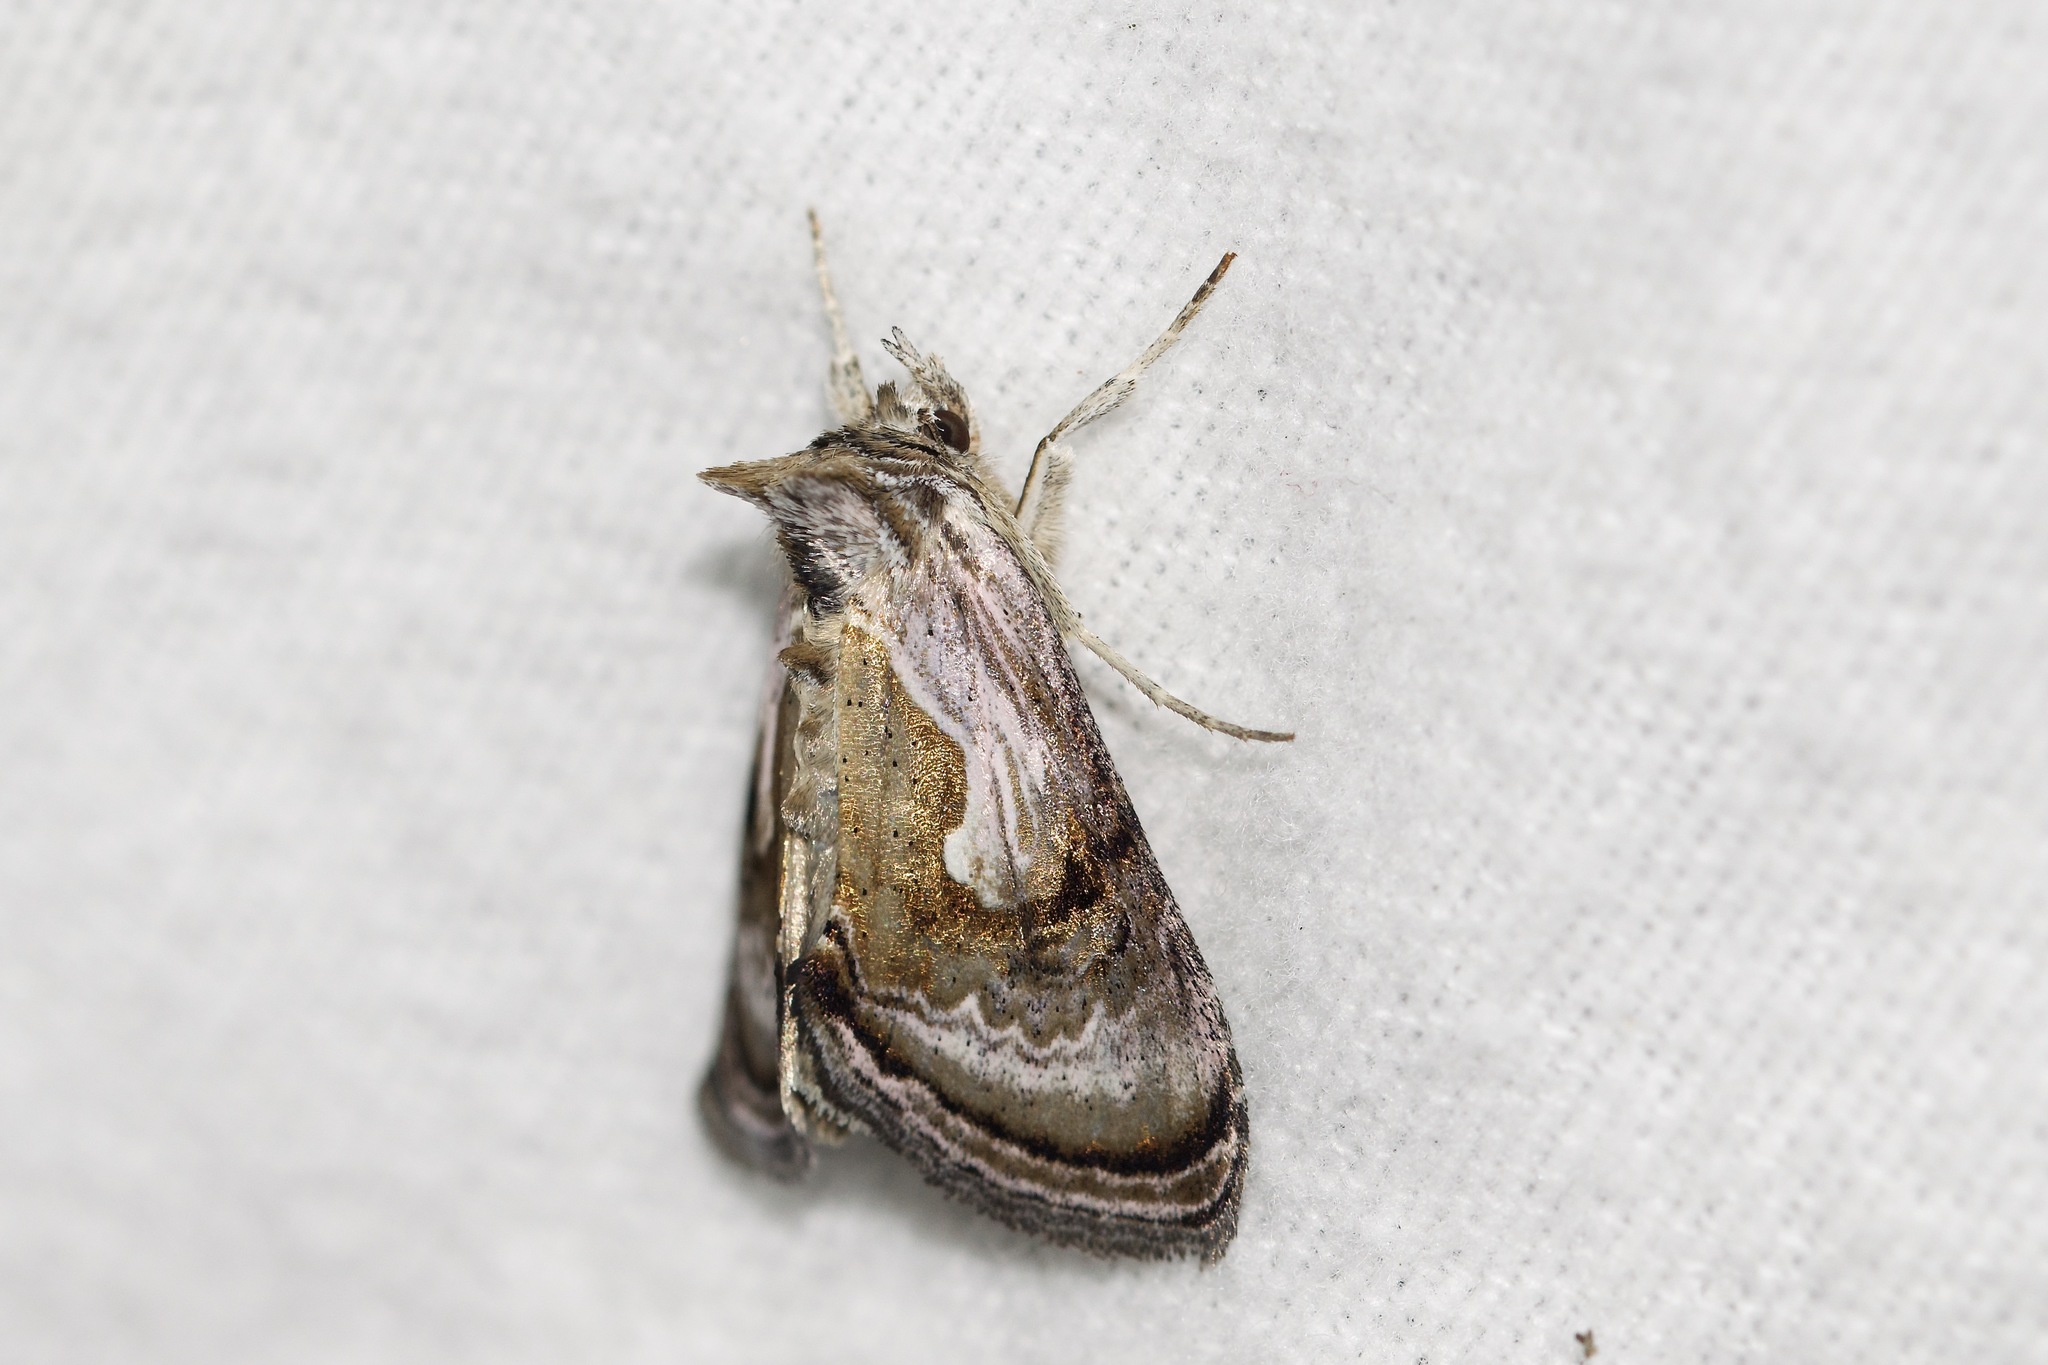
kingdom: Animalia
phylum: Arthropoda
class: Insecta
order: Lepidoptera
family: Noctuidae
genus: Chrysanympha
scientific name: Chrysanympha formosa
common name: Formosa looper moth
